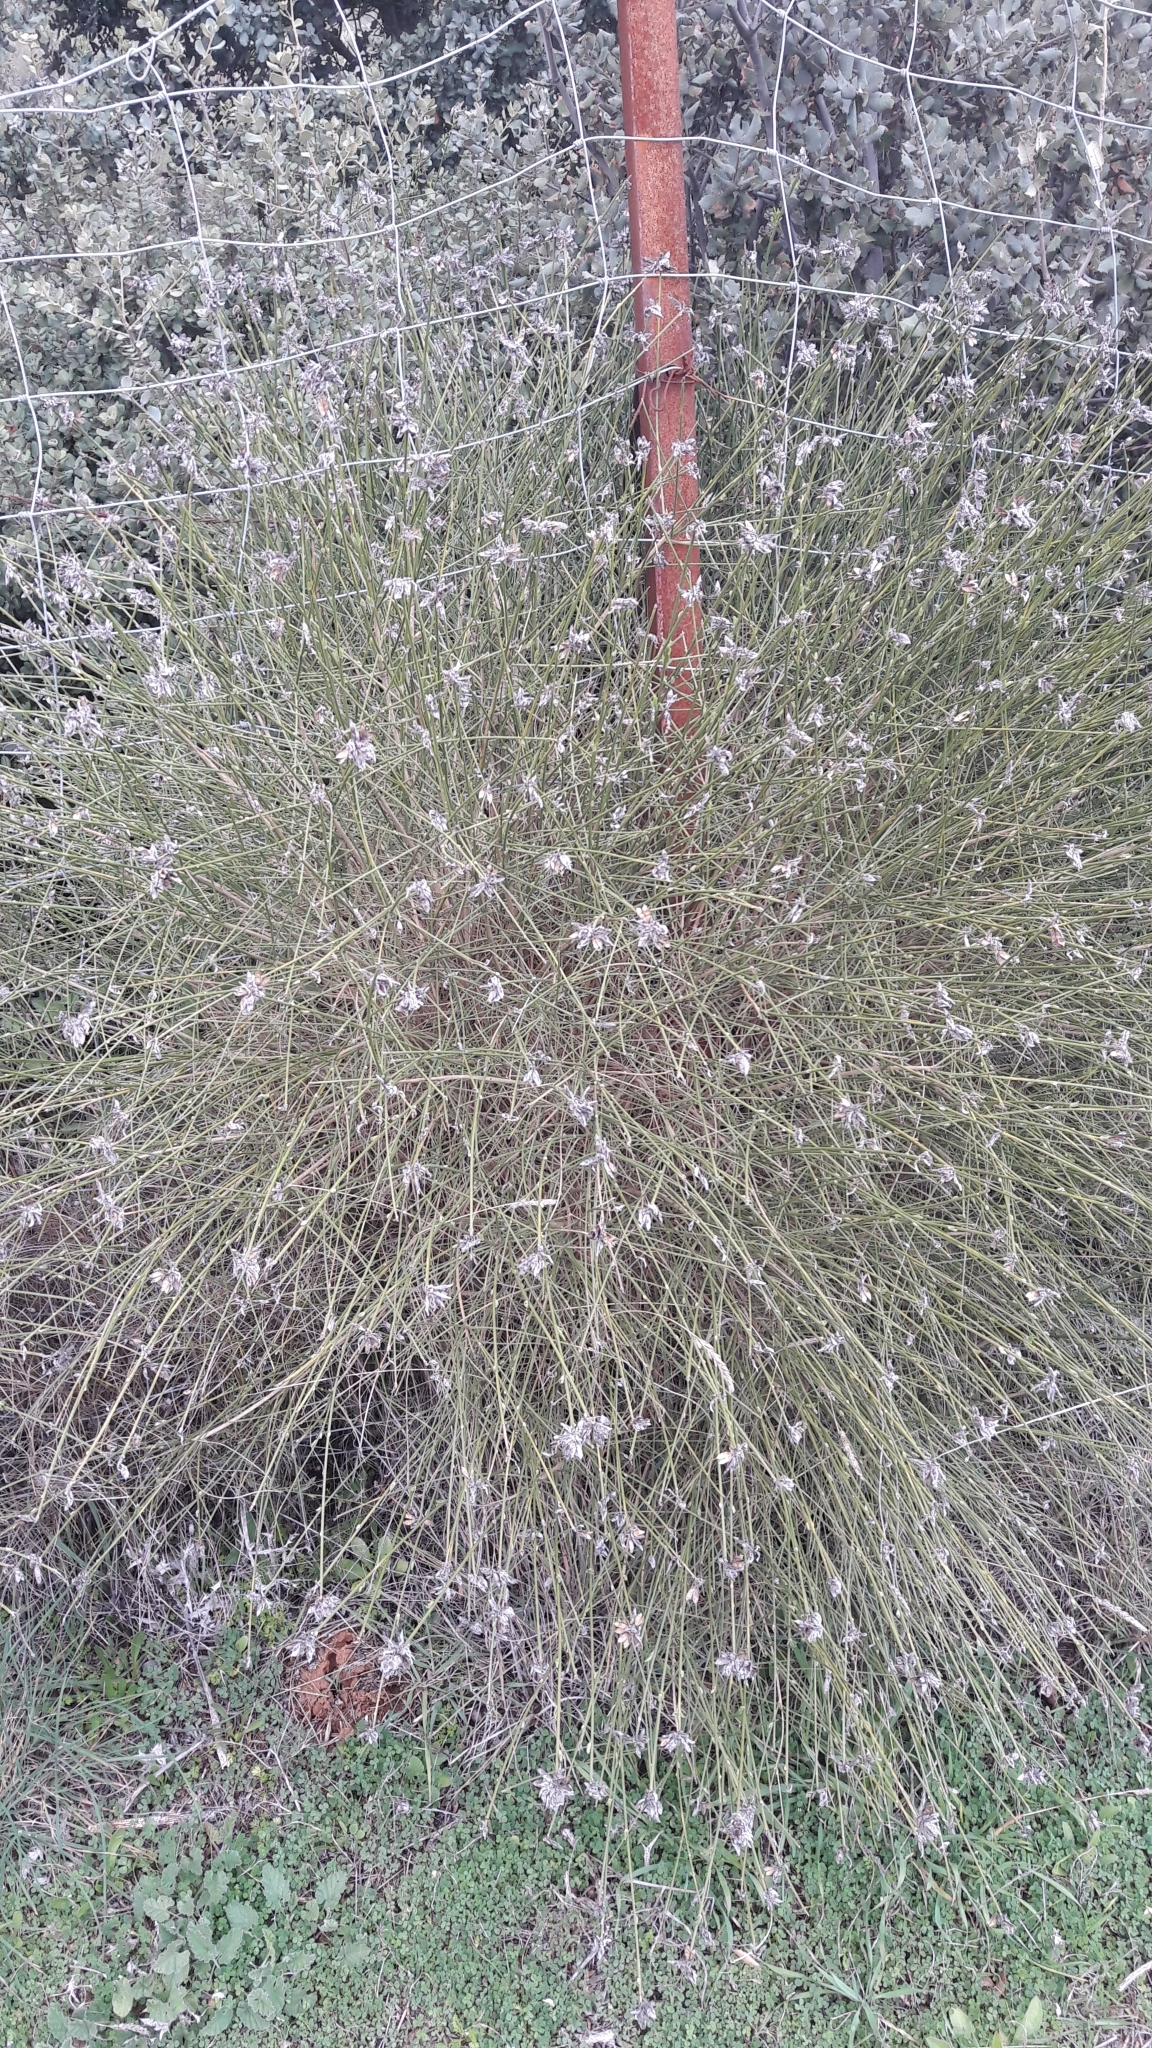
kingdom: Plantae
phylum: Tracheophyta
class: Magnoliopsida
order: Fabales
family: Fabaceae
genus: Genista
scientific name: Genista umbellata
